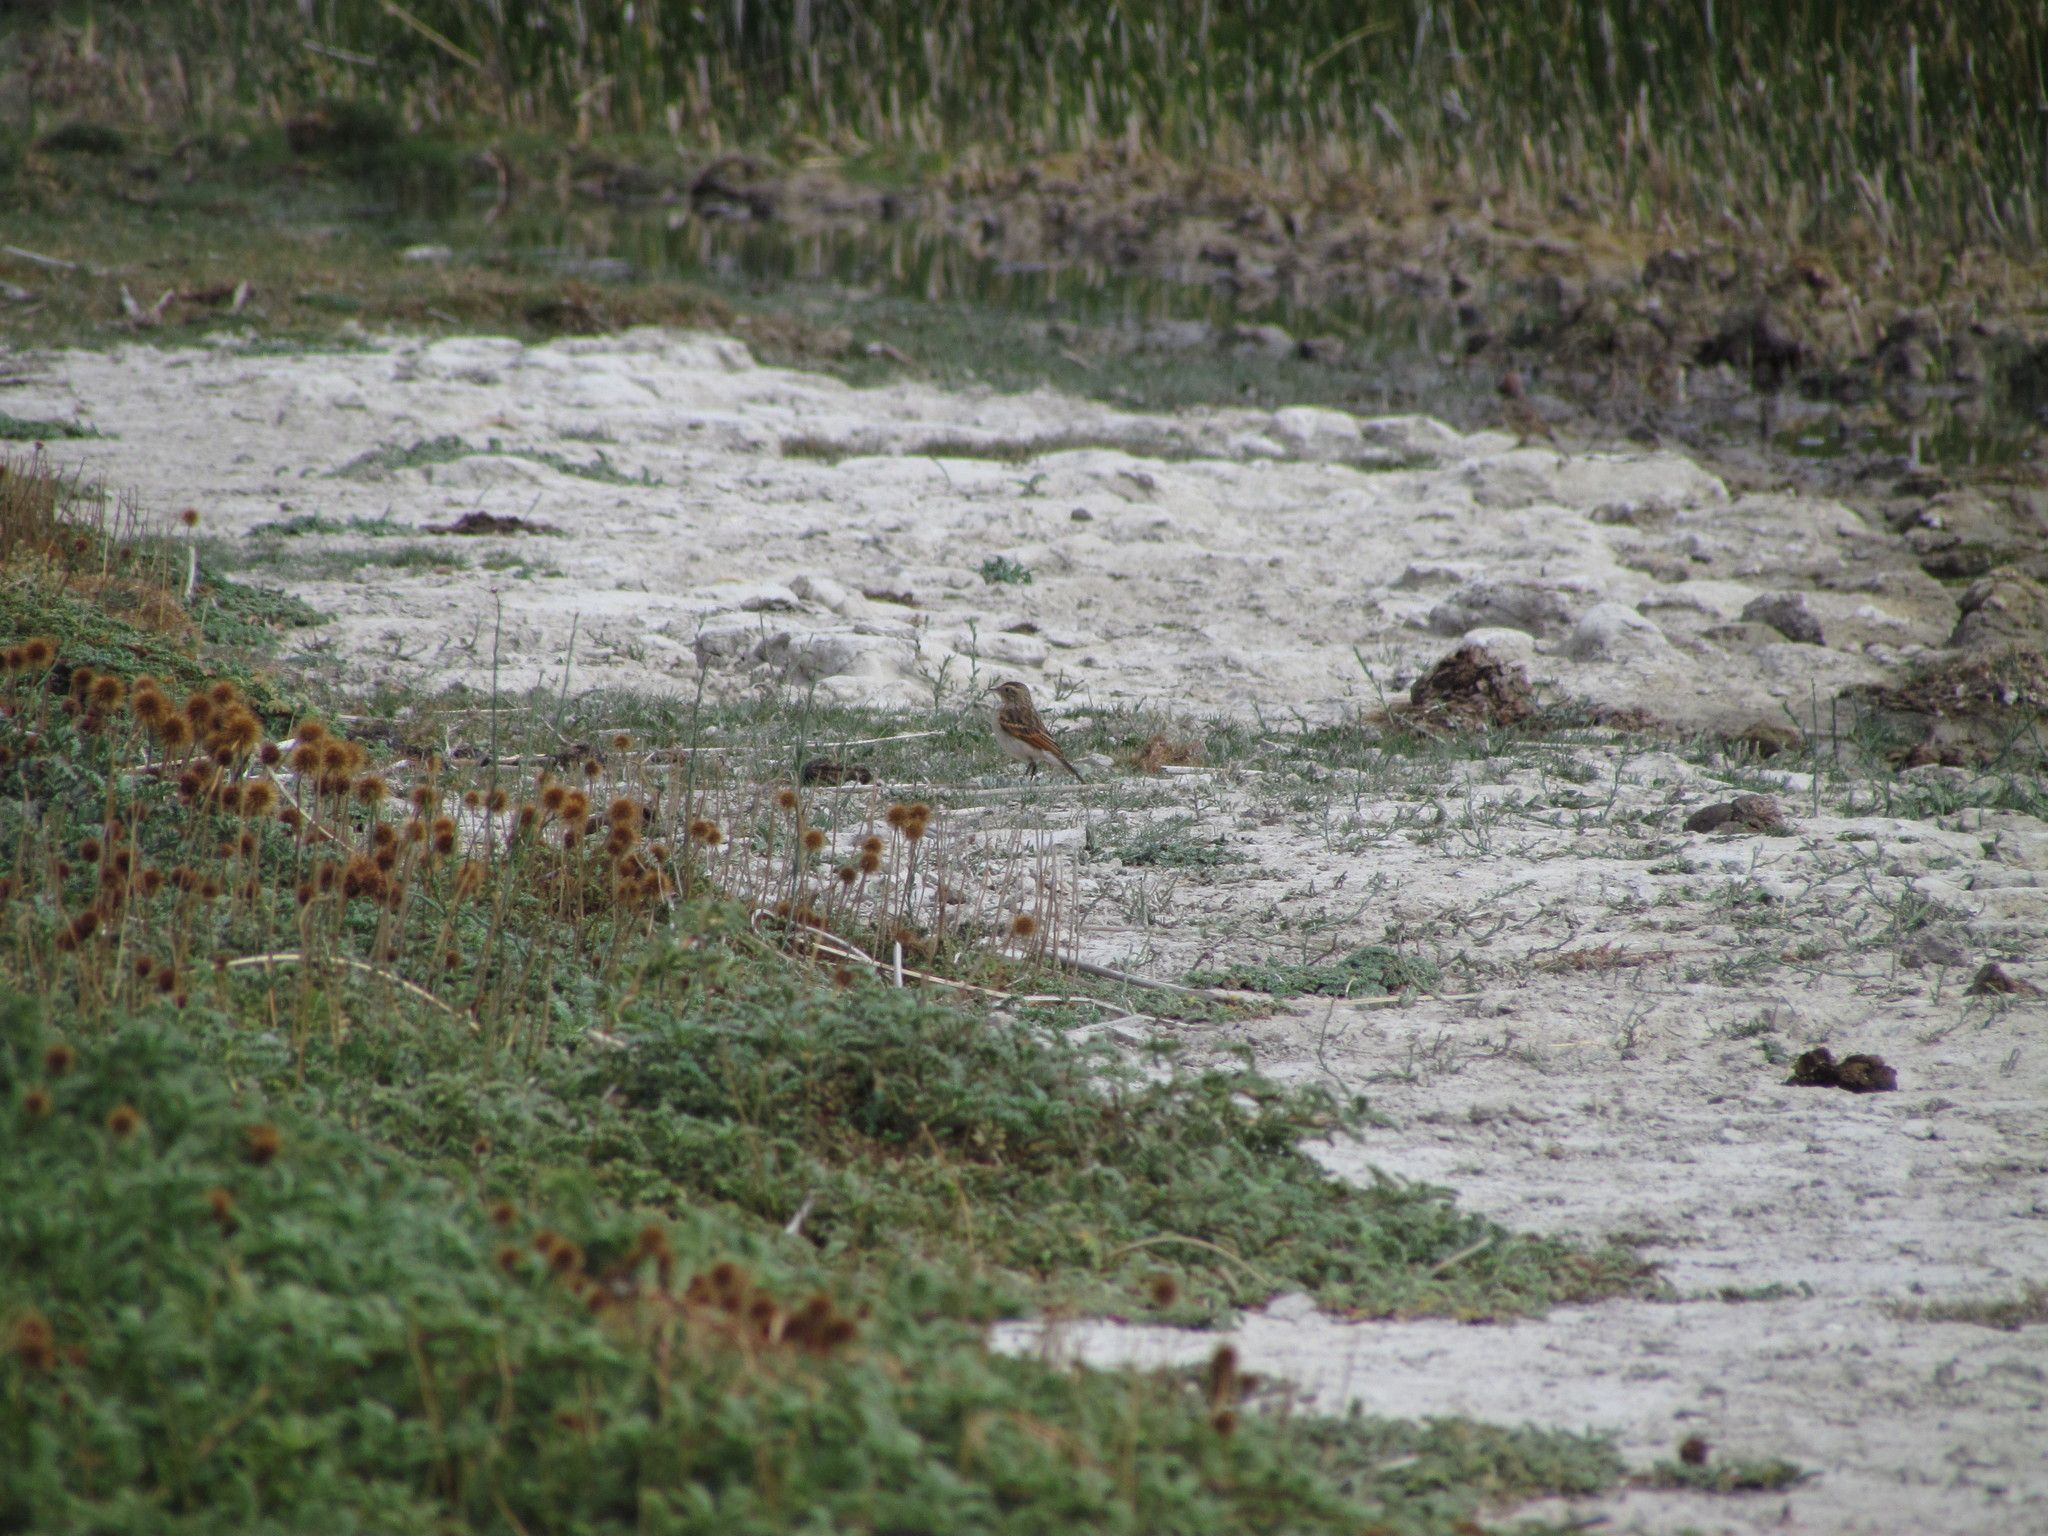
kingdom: Animalia
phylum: Chordata
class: Aves
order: Passeriformes
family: Tyrannidae
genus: Hymenops
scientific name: Hymenops perspicillatus
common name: Spectacled tyrant
